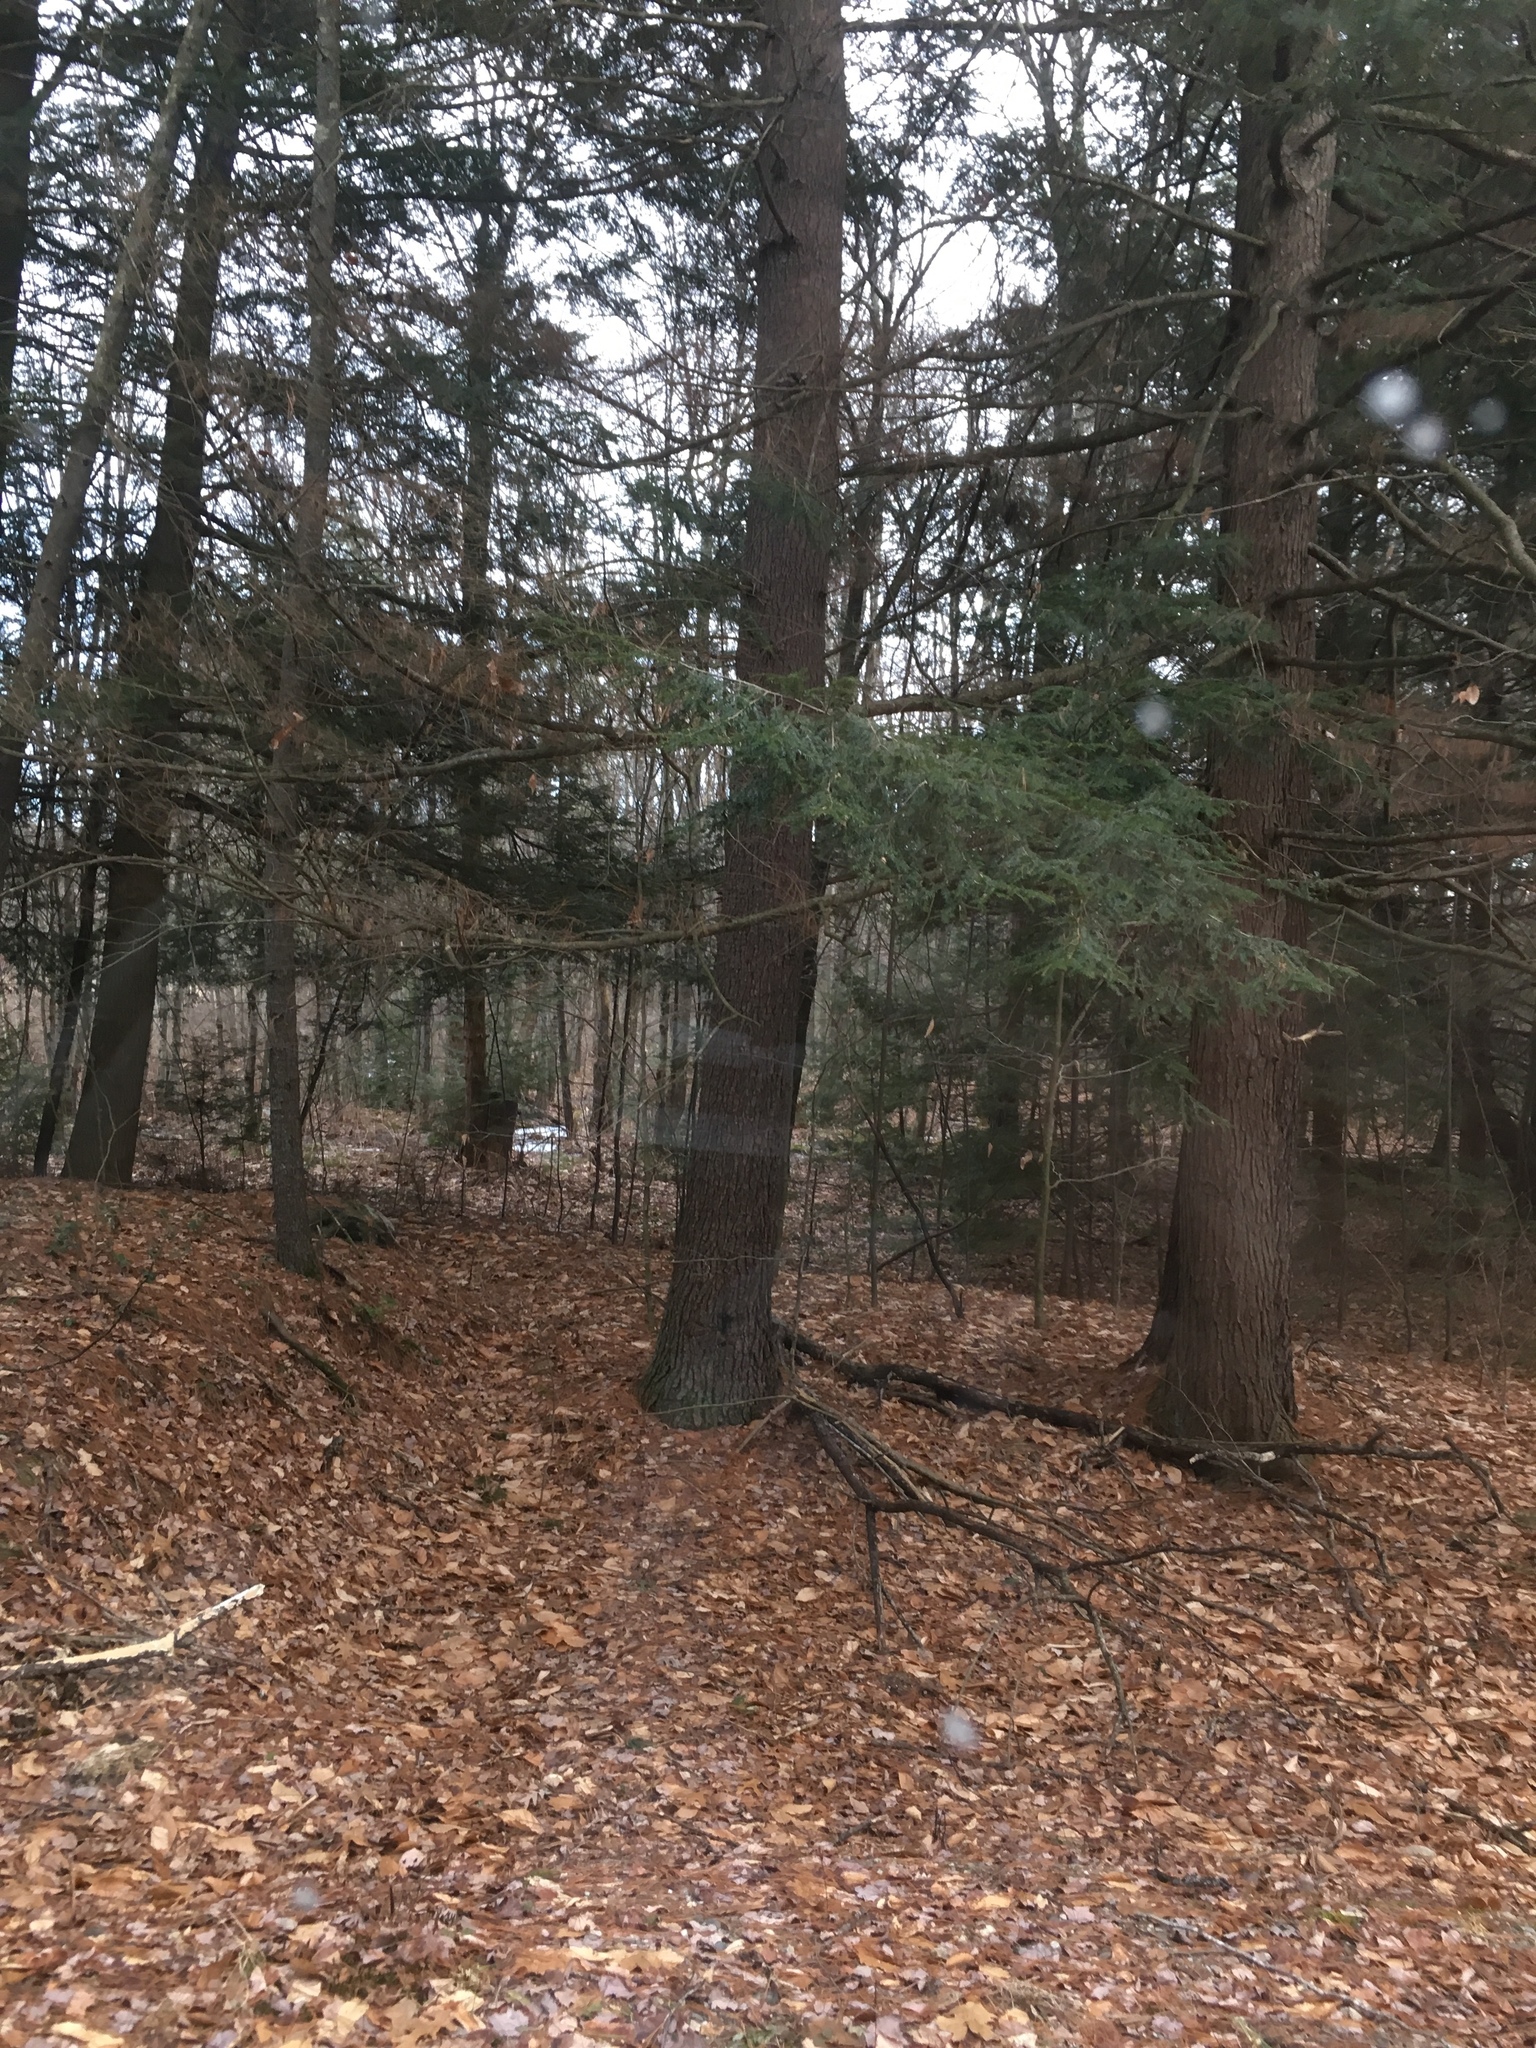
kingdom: Plantae
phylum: Tracheophyta
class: Pinopsida
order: Pinales
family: Pinaceae
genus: Tsuga
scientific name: Tsuga canadensis
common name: Eastern hemlock
